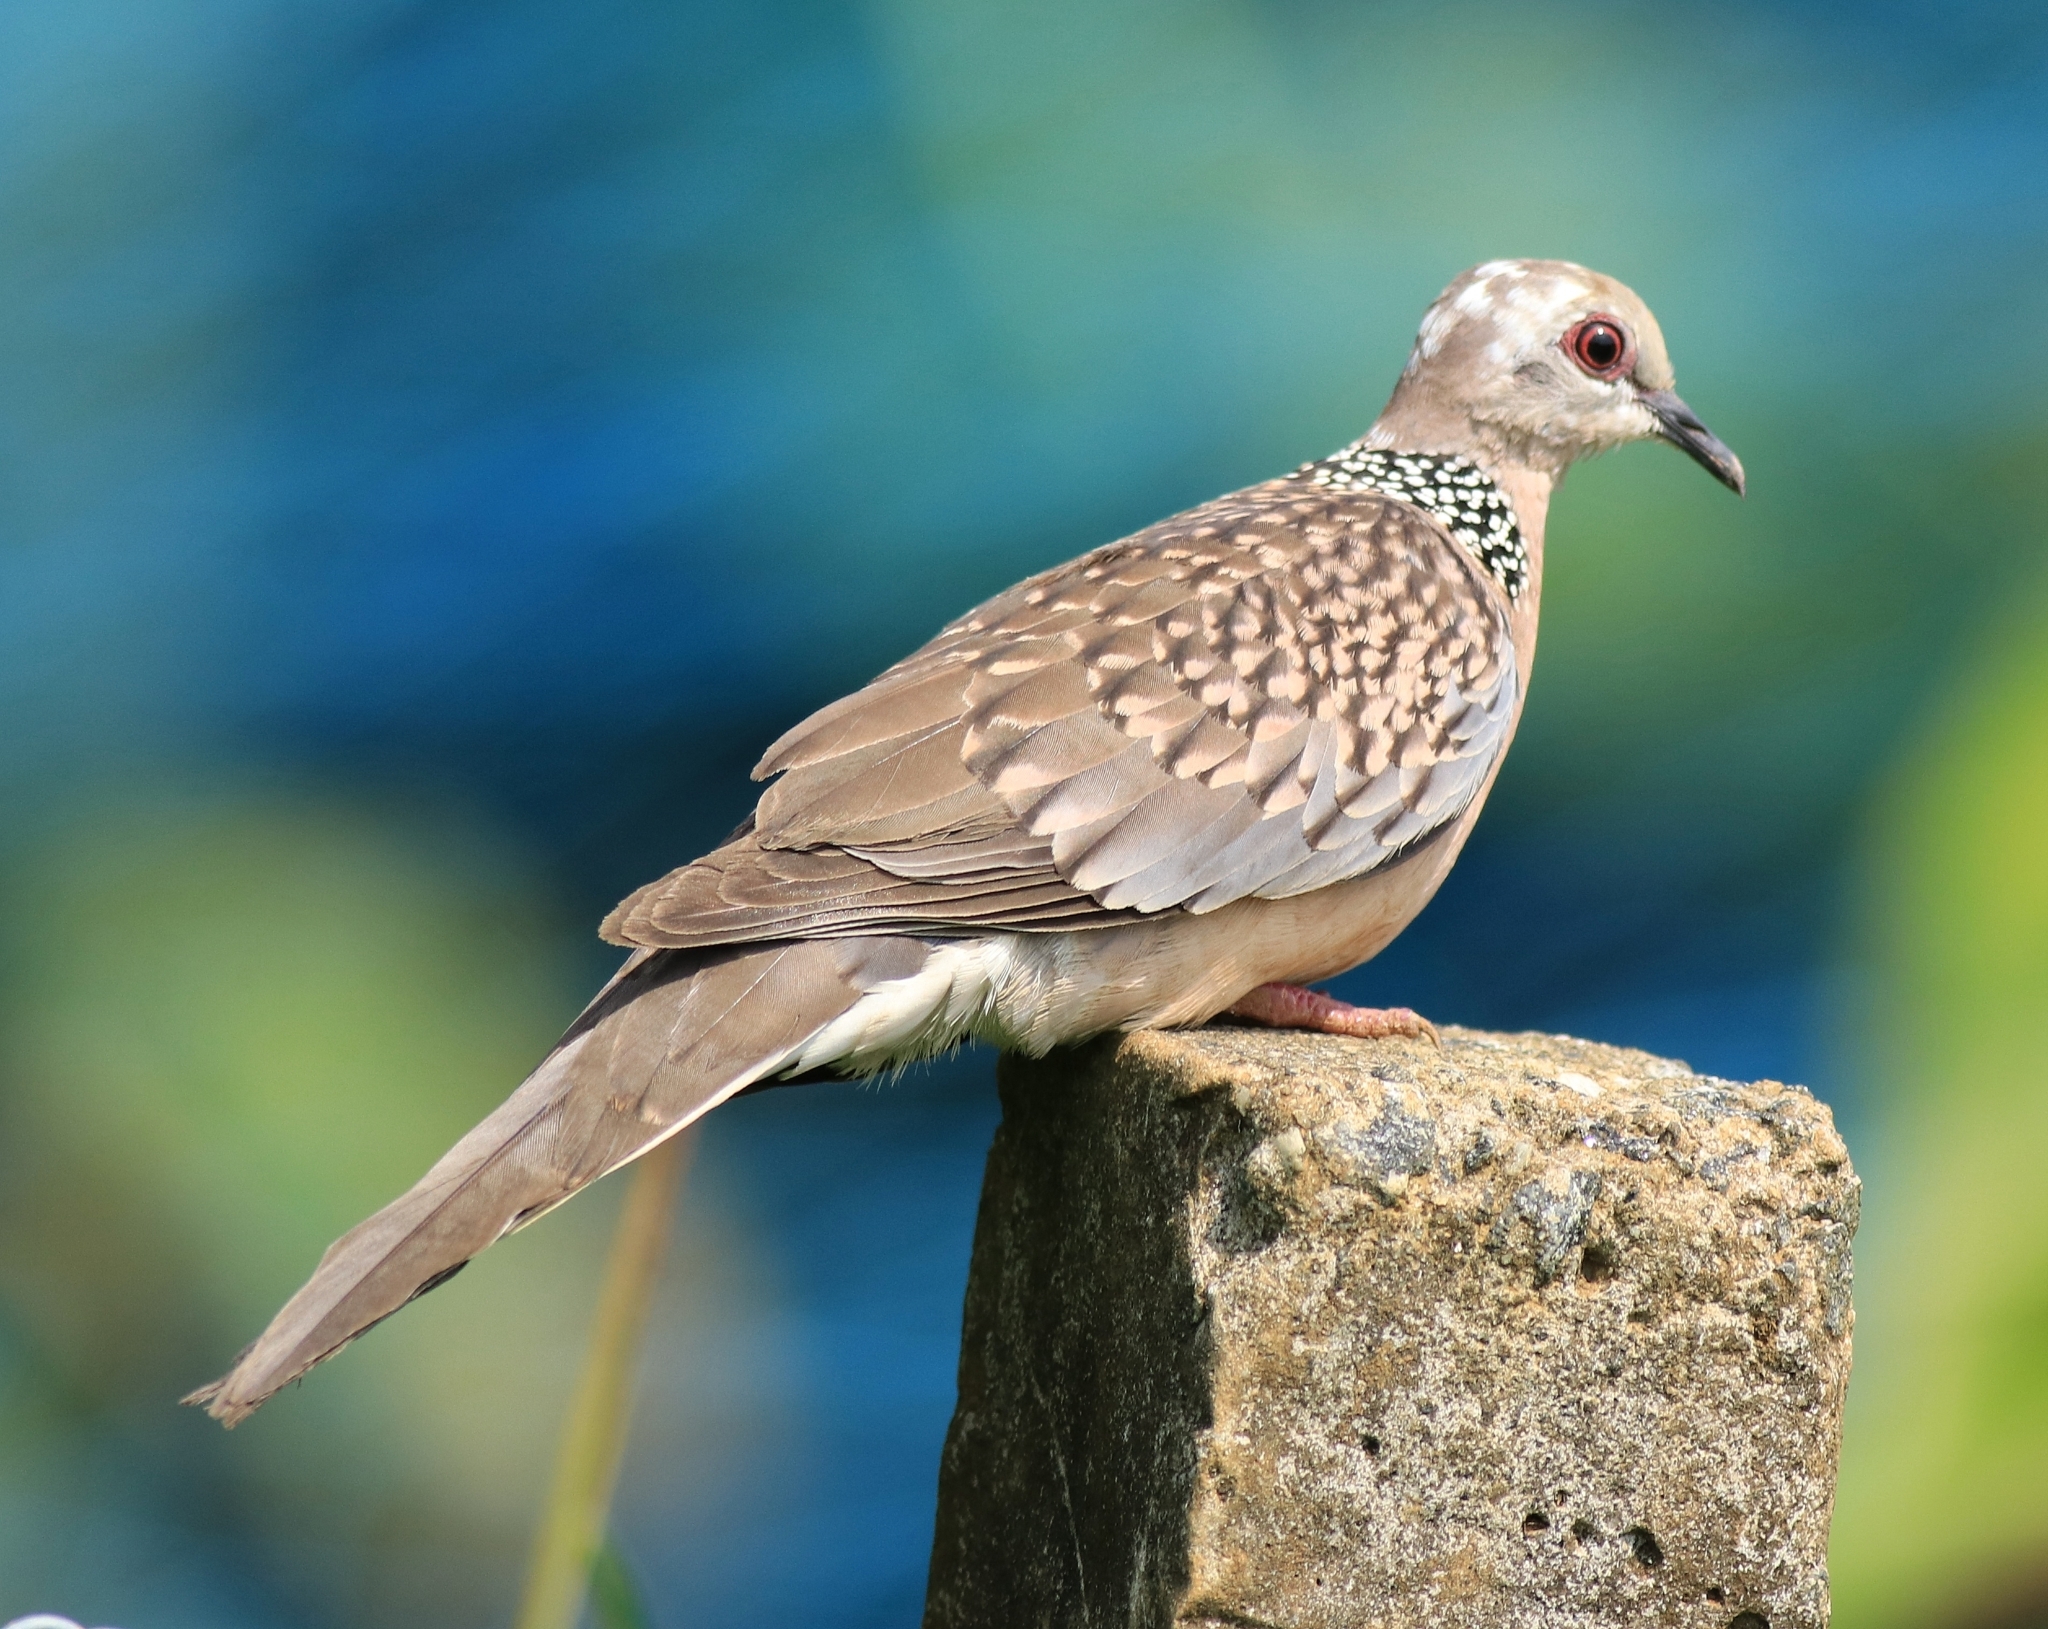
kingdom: Animalia
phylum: Chordata
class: Aves
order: Columbiformes
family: Columbidae
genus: Spilopelia
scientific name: Spilopelia chinensis
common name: Spotted dove
